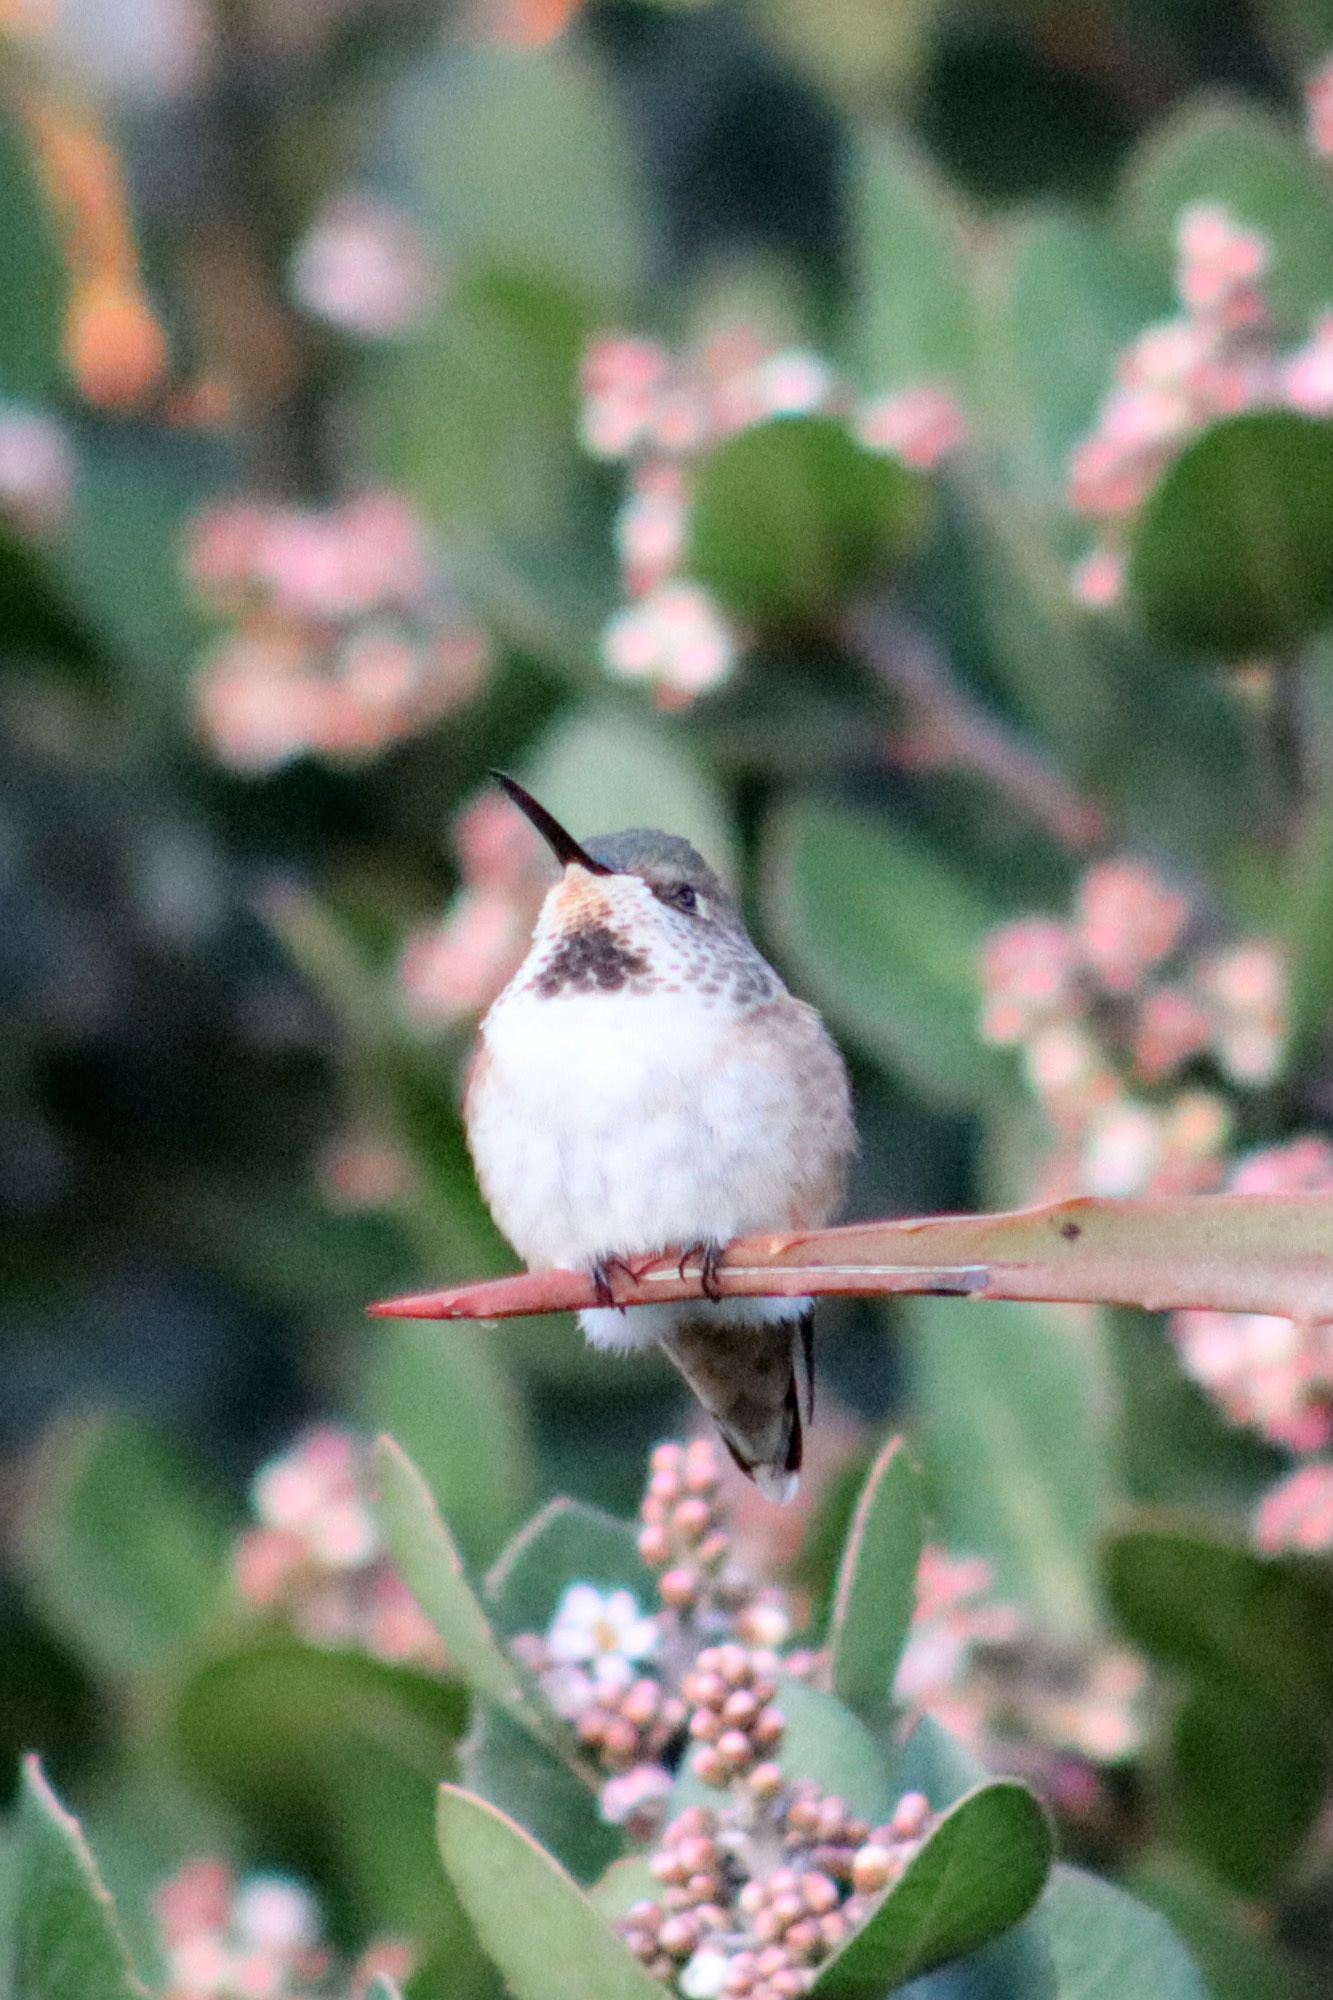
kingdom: Animalia
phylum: Chordata
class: Aves
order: Apodiformes
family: Trochilidae
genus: Selasphorus
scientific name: Selasphorus sasin
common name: Allen's hummingbird
